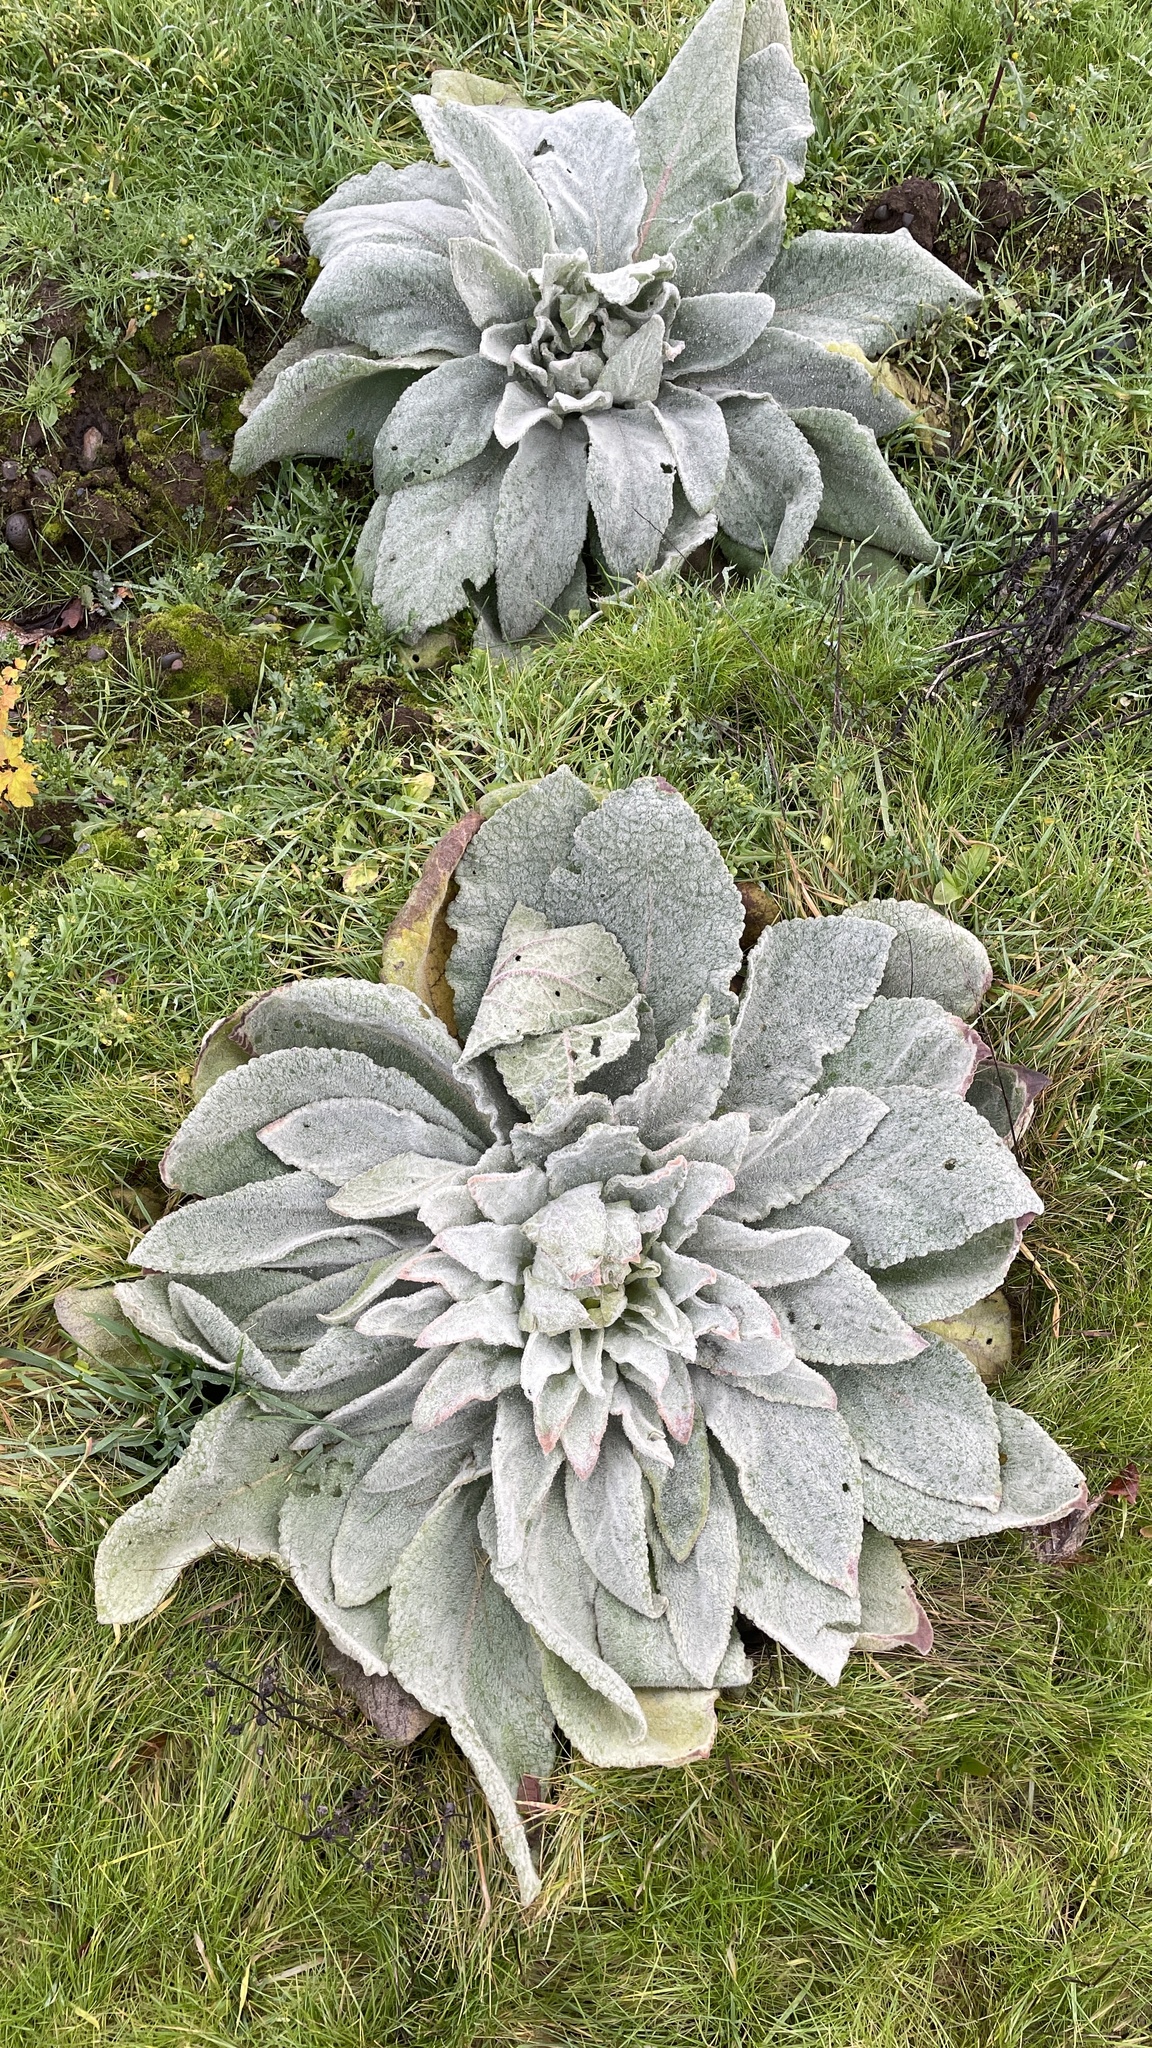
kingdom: Plantae
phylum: Tracheophyta
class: Magnoliopsida
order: Lamiales
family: Scrophulariaceae
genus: Verbascum
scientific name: Verbascum thapsus
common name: Common mullein
